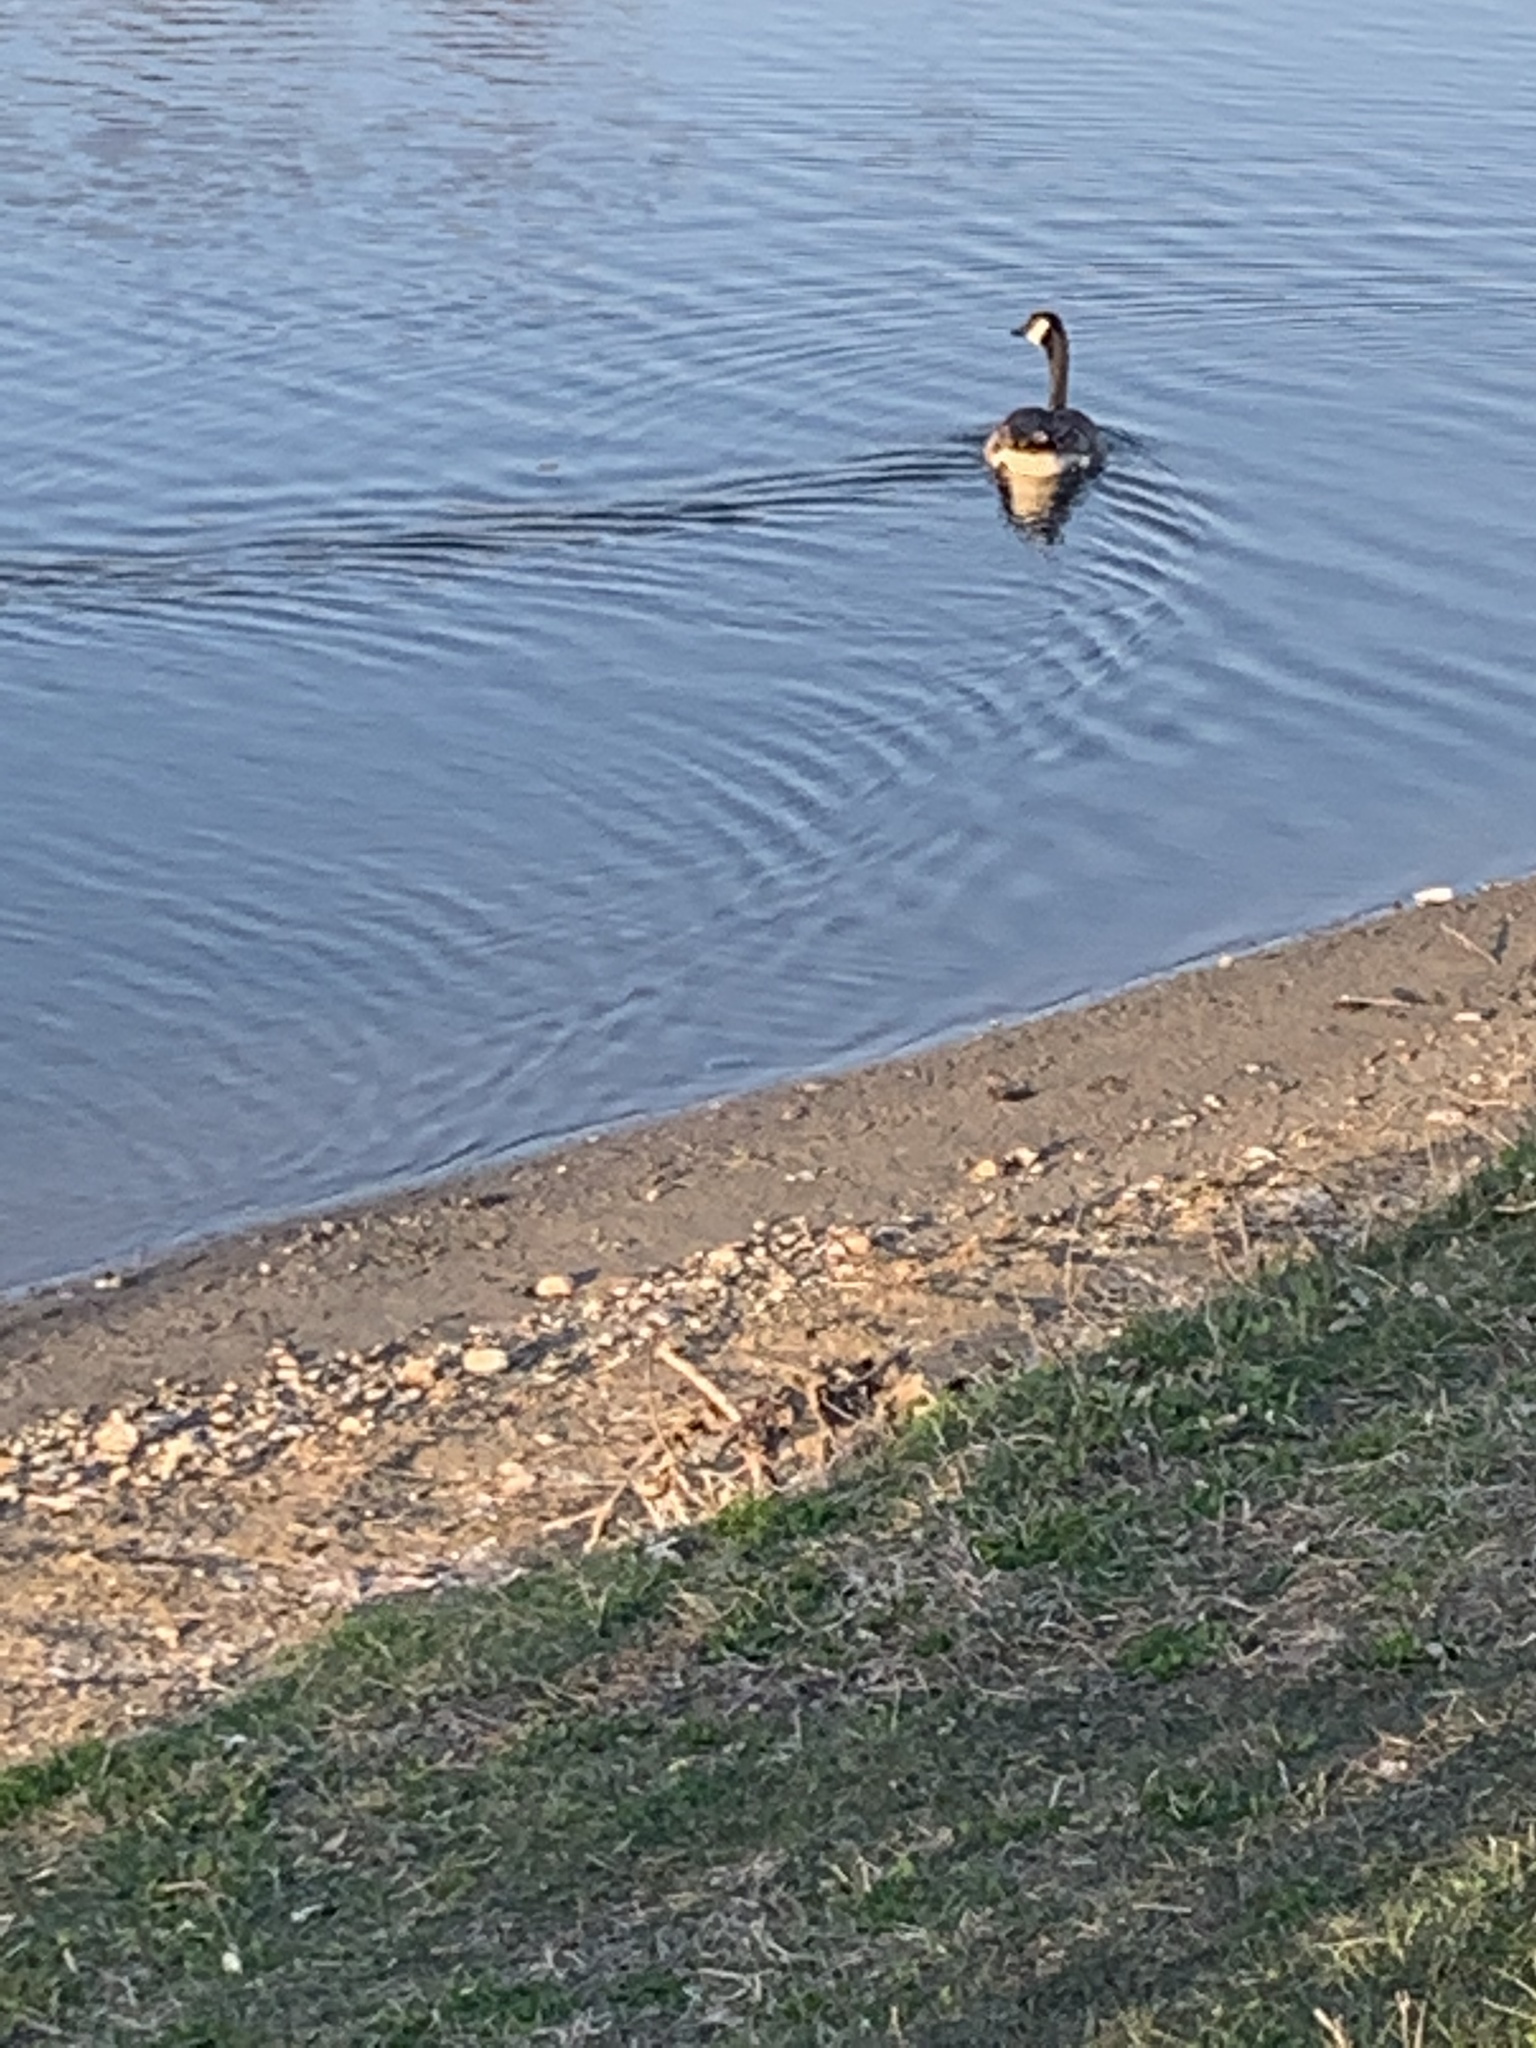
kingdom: Animalia
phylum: Chordata
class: Aves
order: Anseriformes
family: Anatidae
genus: Branta
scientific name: Branta canadensis
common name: Canada goose
